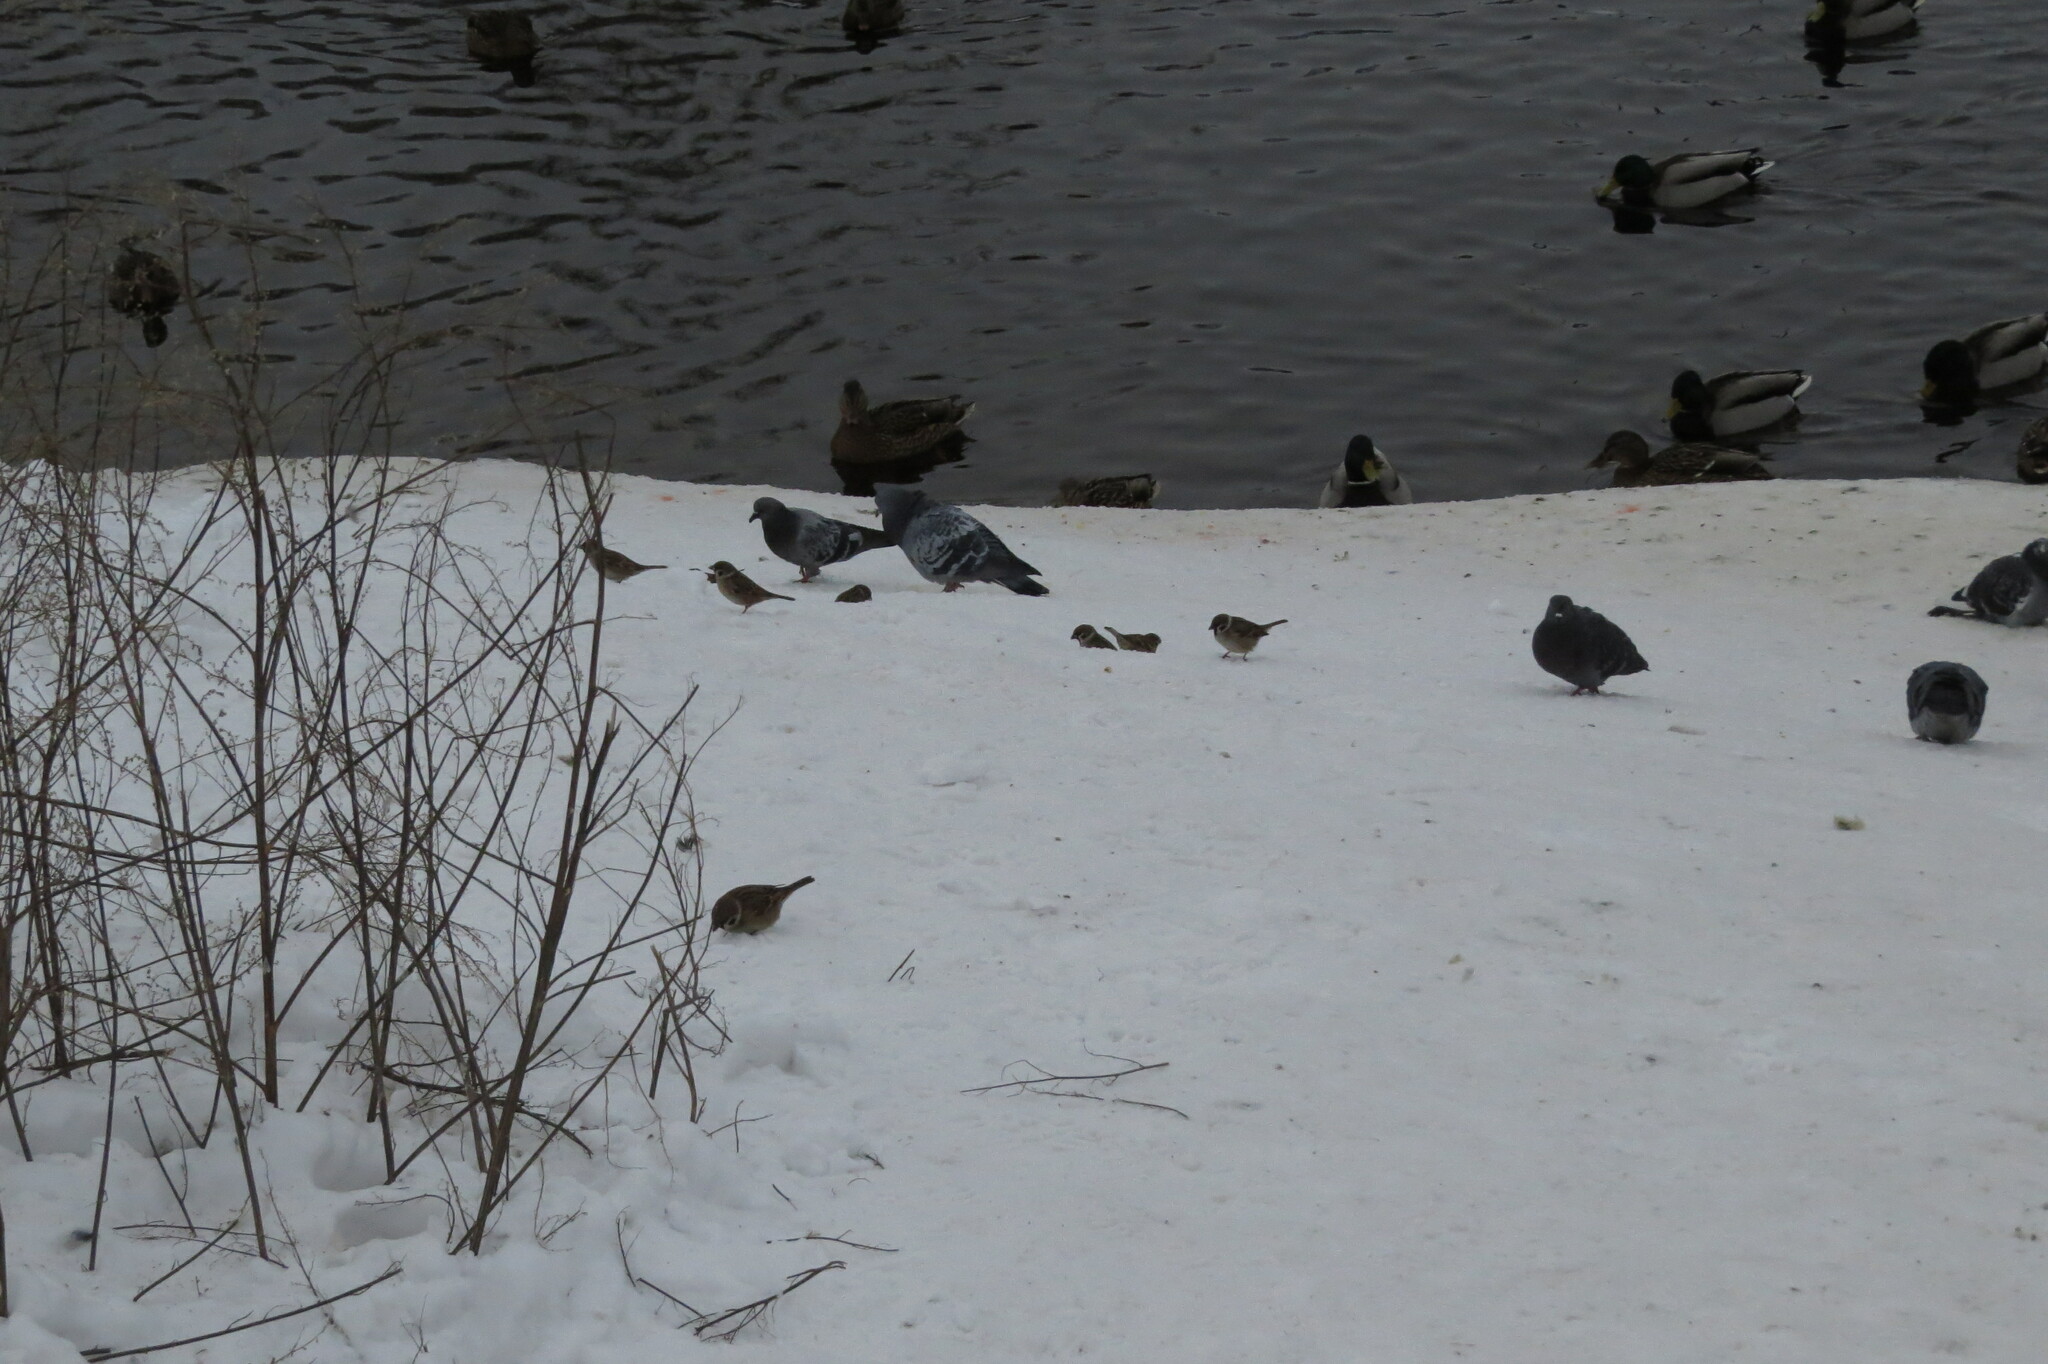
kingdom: Animalia
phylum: Chordata
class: Aves
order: Passeriformes
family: Passeridae
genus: Passer
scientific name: Passer montanus
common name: Eurasian tree sparrow
